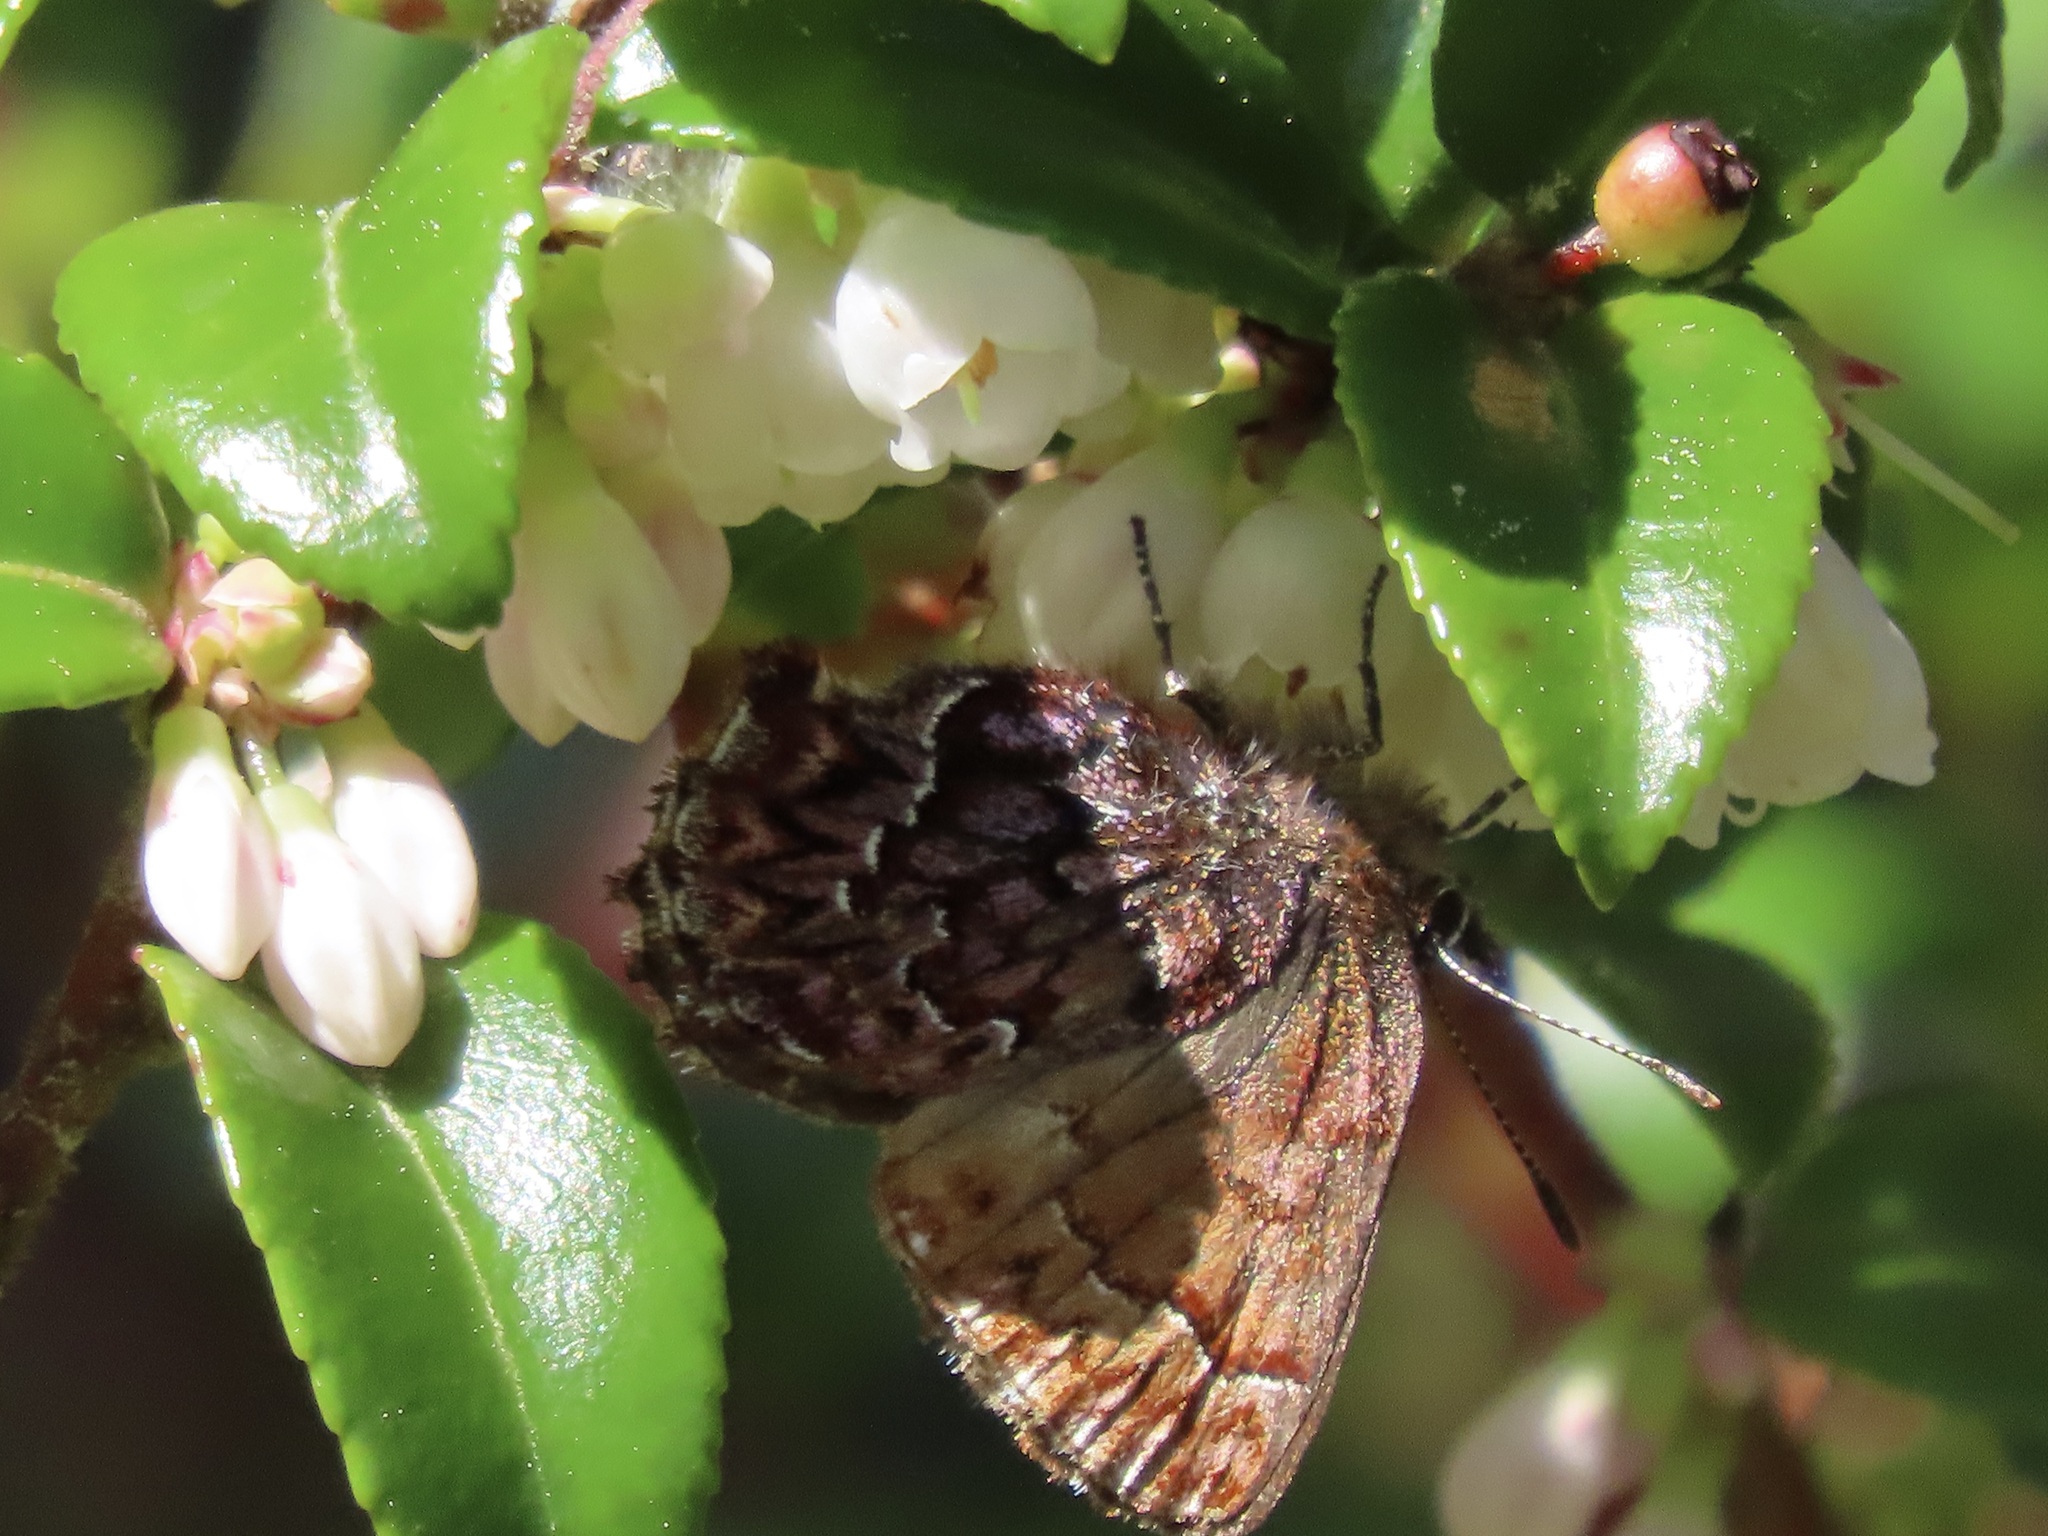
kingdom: Animalia
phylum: Arthropoda
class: Insecta
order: Lepidoptera
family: Lycaenidae
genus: Incisalia
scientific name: Incisalia eryphon
